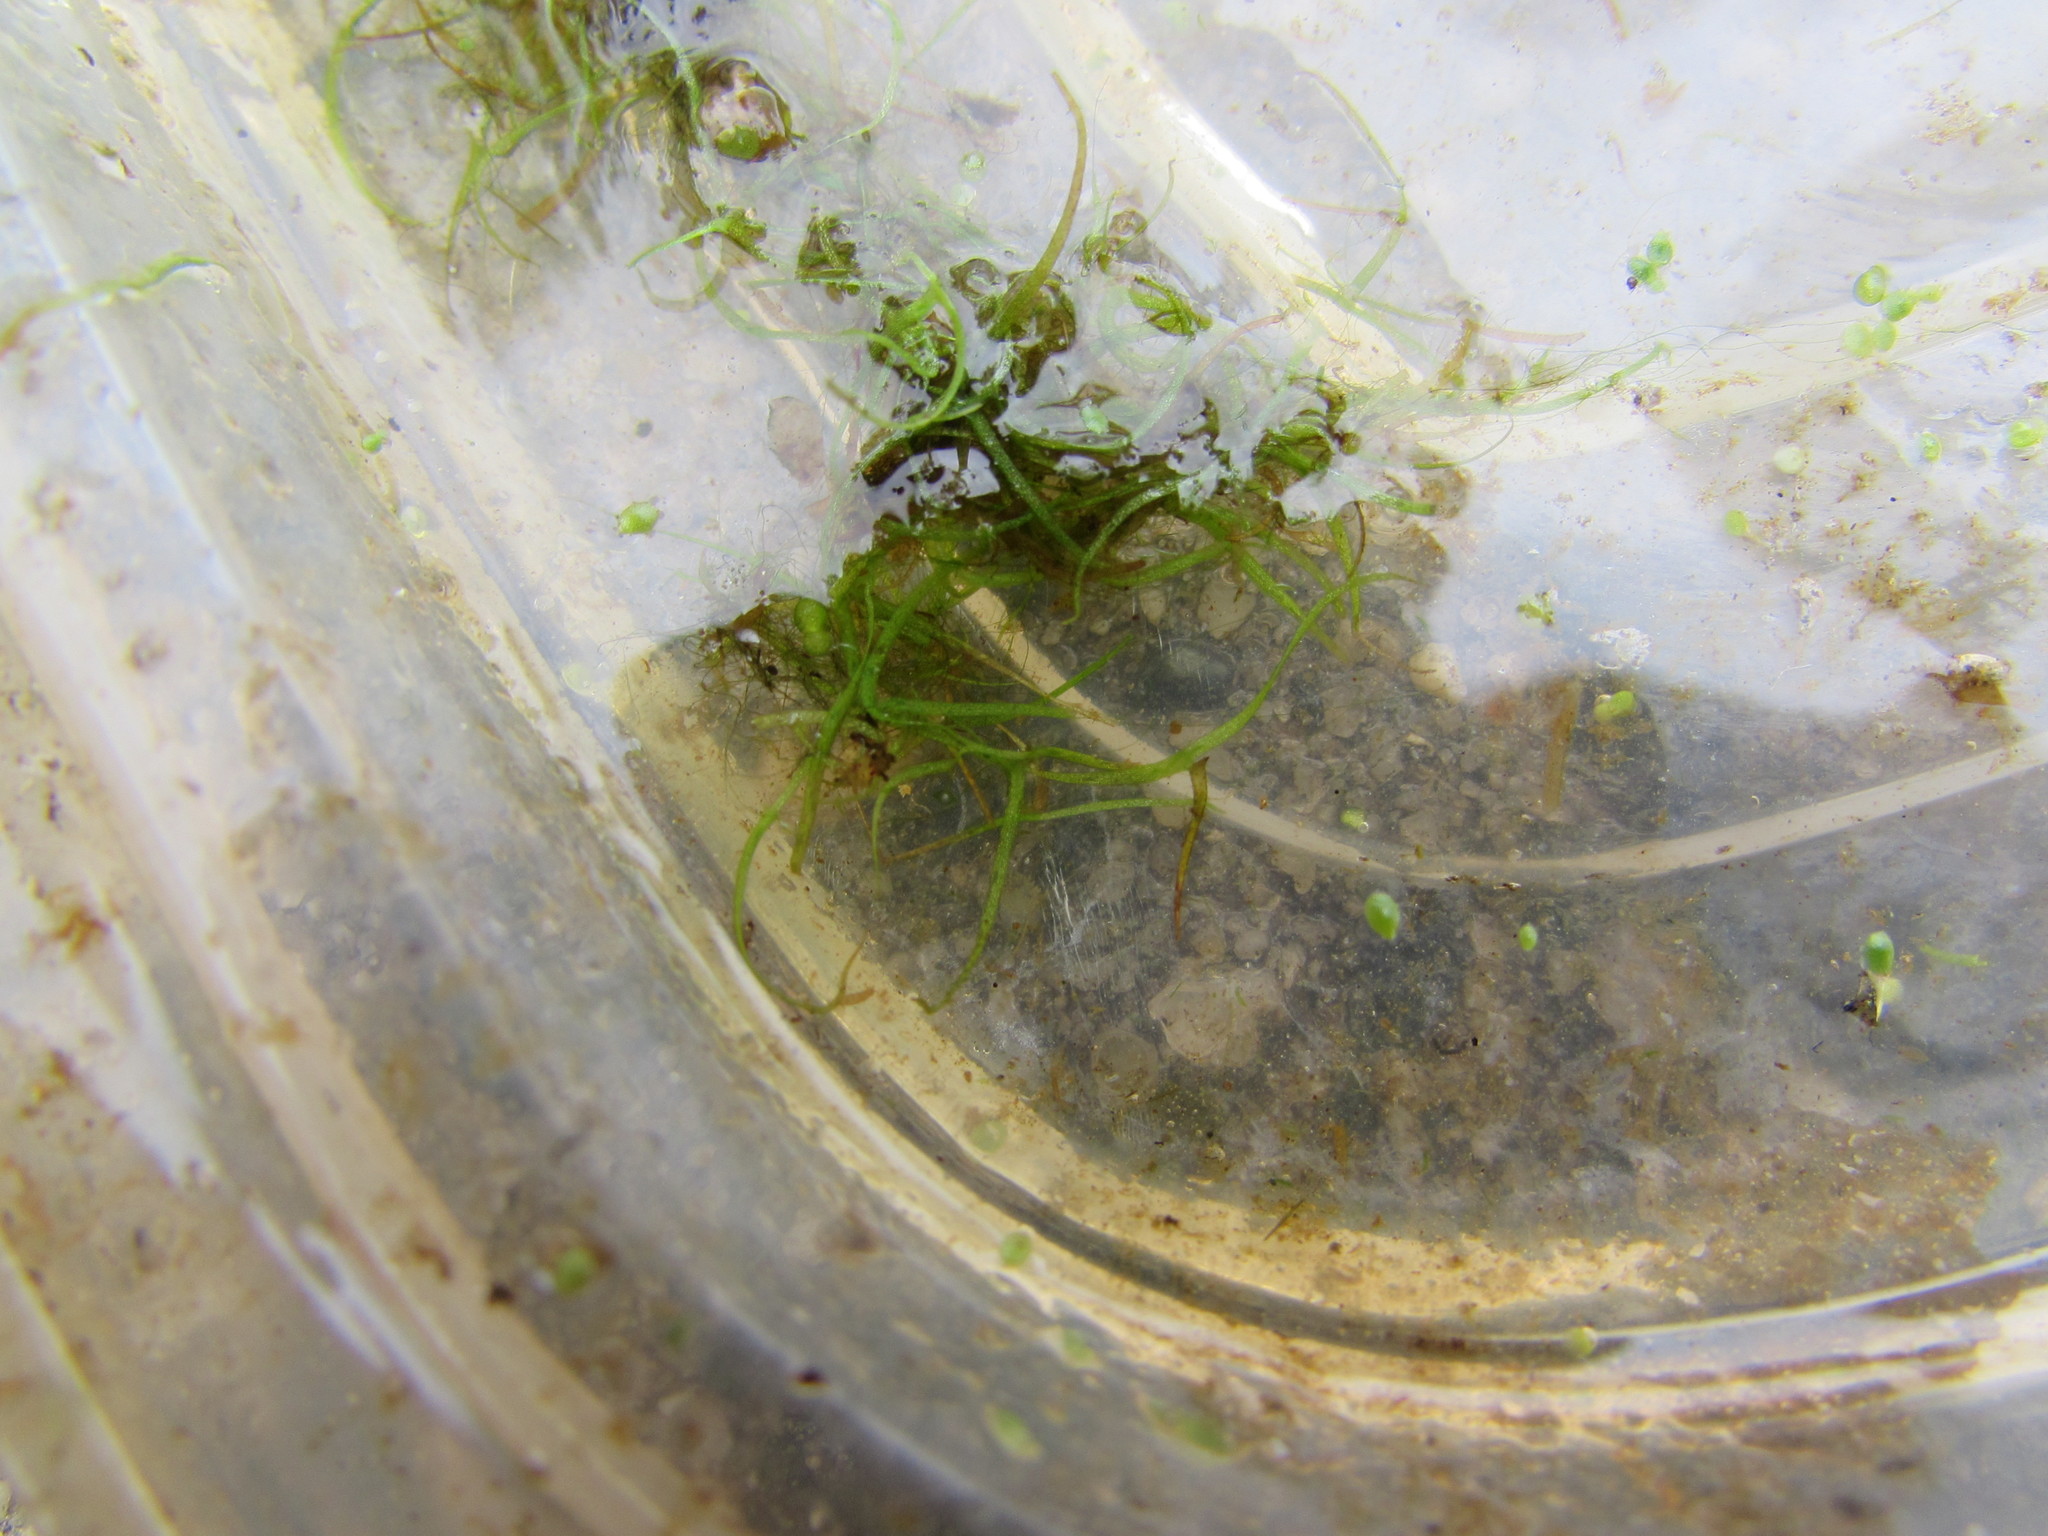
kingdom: Plantae
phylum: Tracheophyta
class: Liliopsida
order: Alismatales
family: Araceae
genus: Wolffiella
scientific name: Wolffiella gladiata
